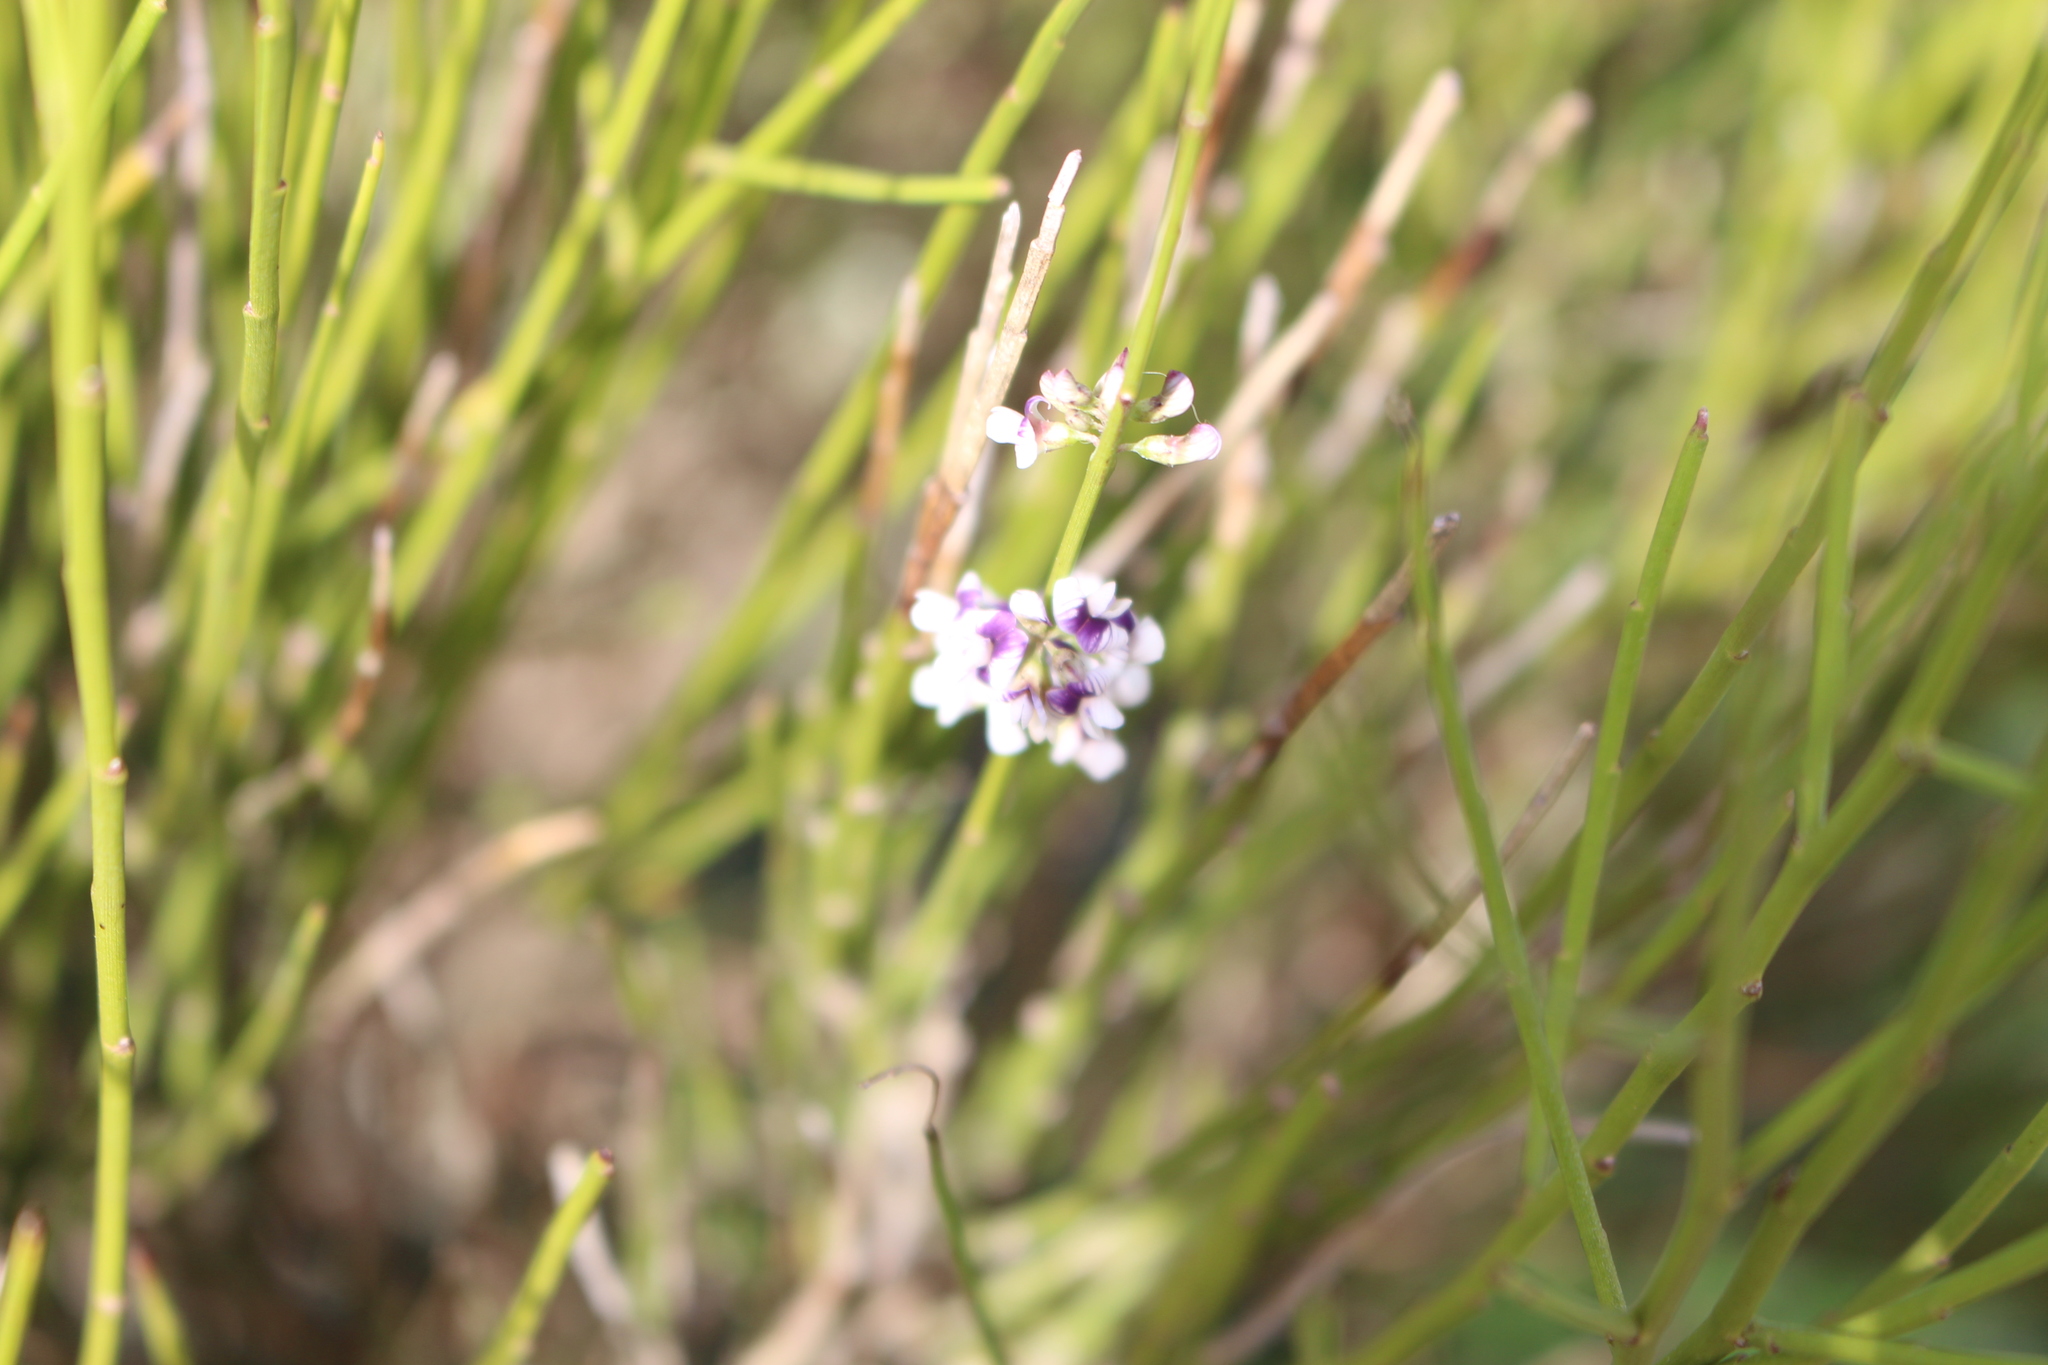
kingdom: Plantae
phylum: Tracheophyta
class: Magnoliopsida
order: Fabales
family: Fabaceae
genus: Carmichaelia
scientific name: Carmichaelia australis
